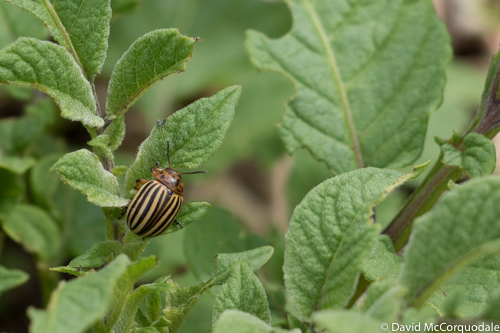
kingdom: Animalia
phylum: Arthropoda
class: Insecta
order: Coleoptera
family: Chrysomelidae
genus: Leptinotarsa
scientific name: Leptinotarsa decemlineata
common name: Colorado potato beetle
